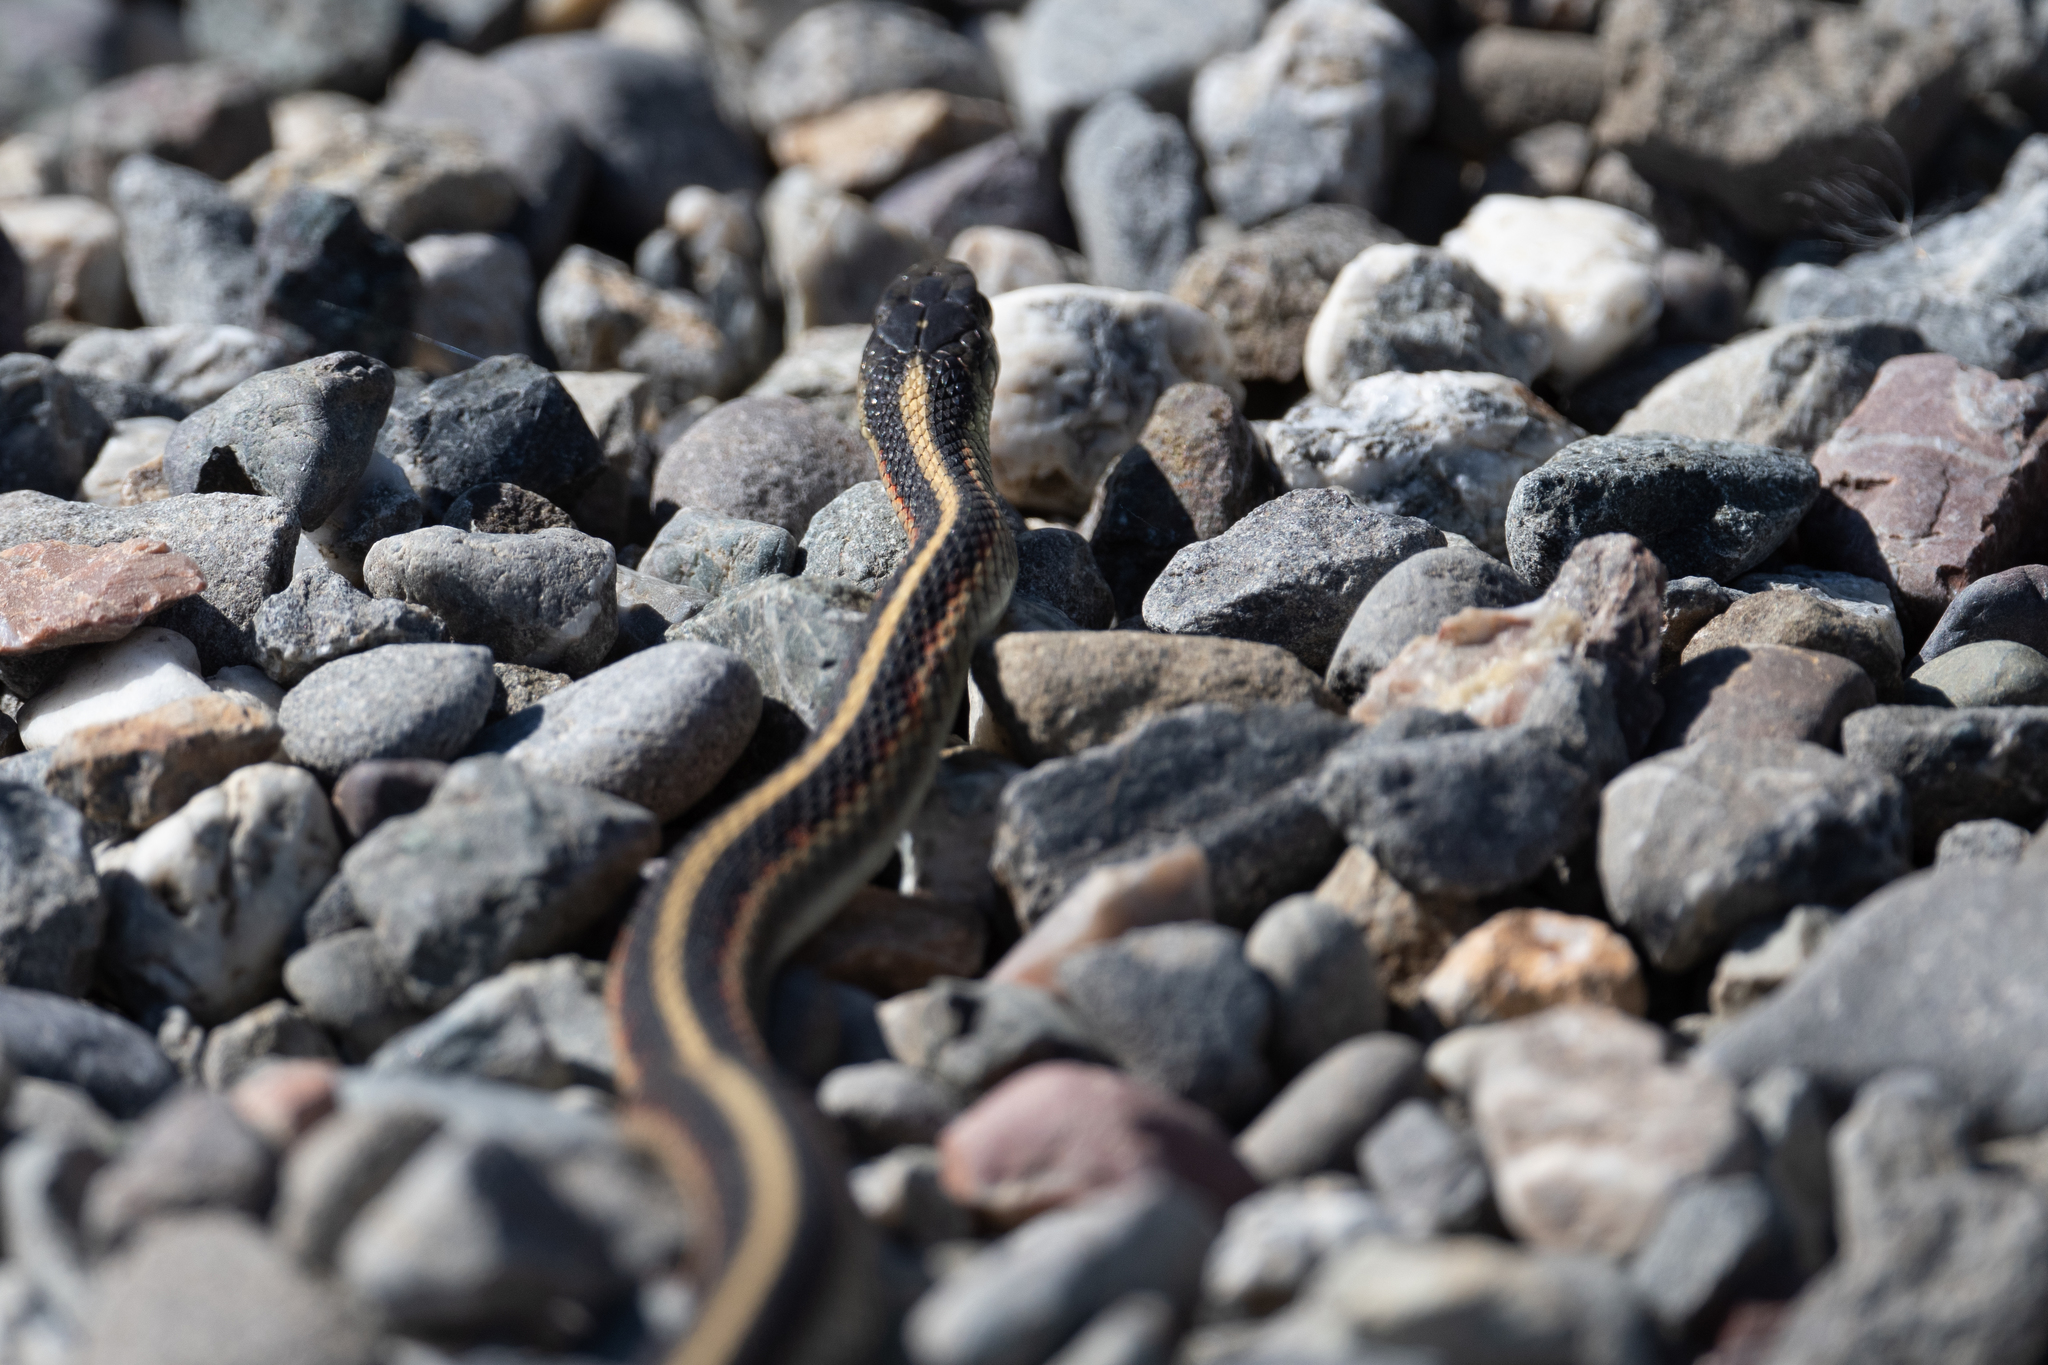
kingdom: Animalia
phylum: Chordata
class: Squamata
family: Colubridae
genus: Thamnophis
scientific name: Thamnophis sirtalis
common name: Common garter snake
